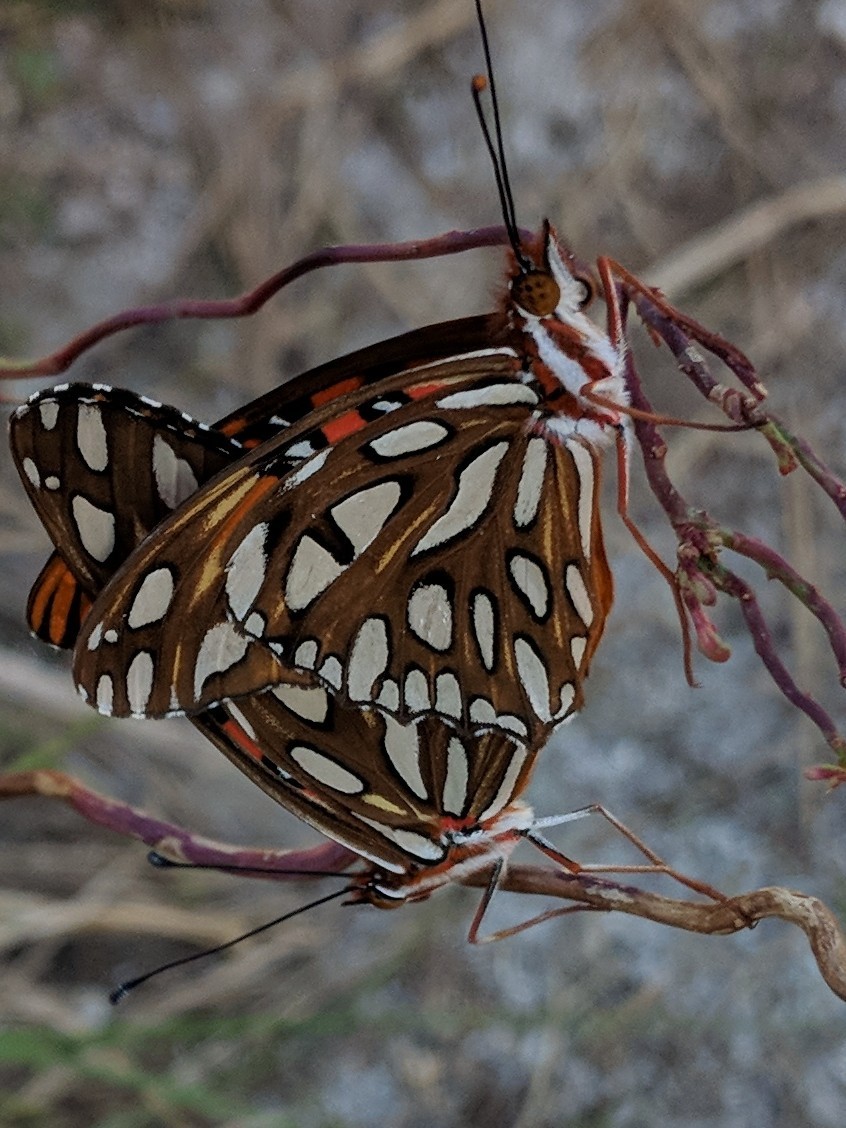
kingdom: Animalia
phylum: Arthropoda
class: Insecta
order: Lepidoptera
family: Nymphalidae
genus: Dione
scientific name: Dione vanillae
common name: Gulf fritillary
